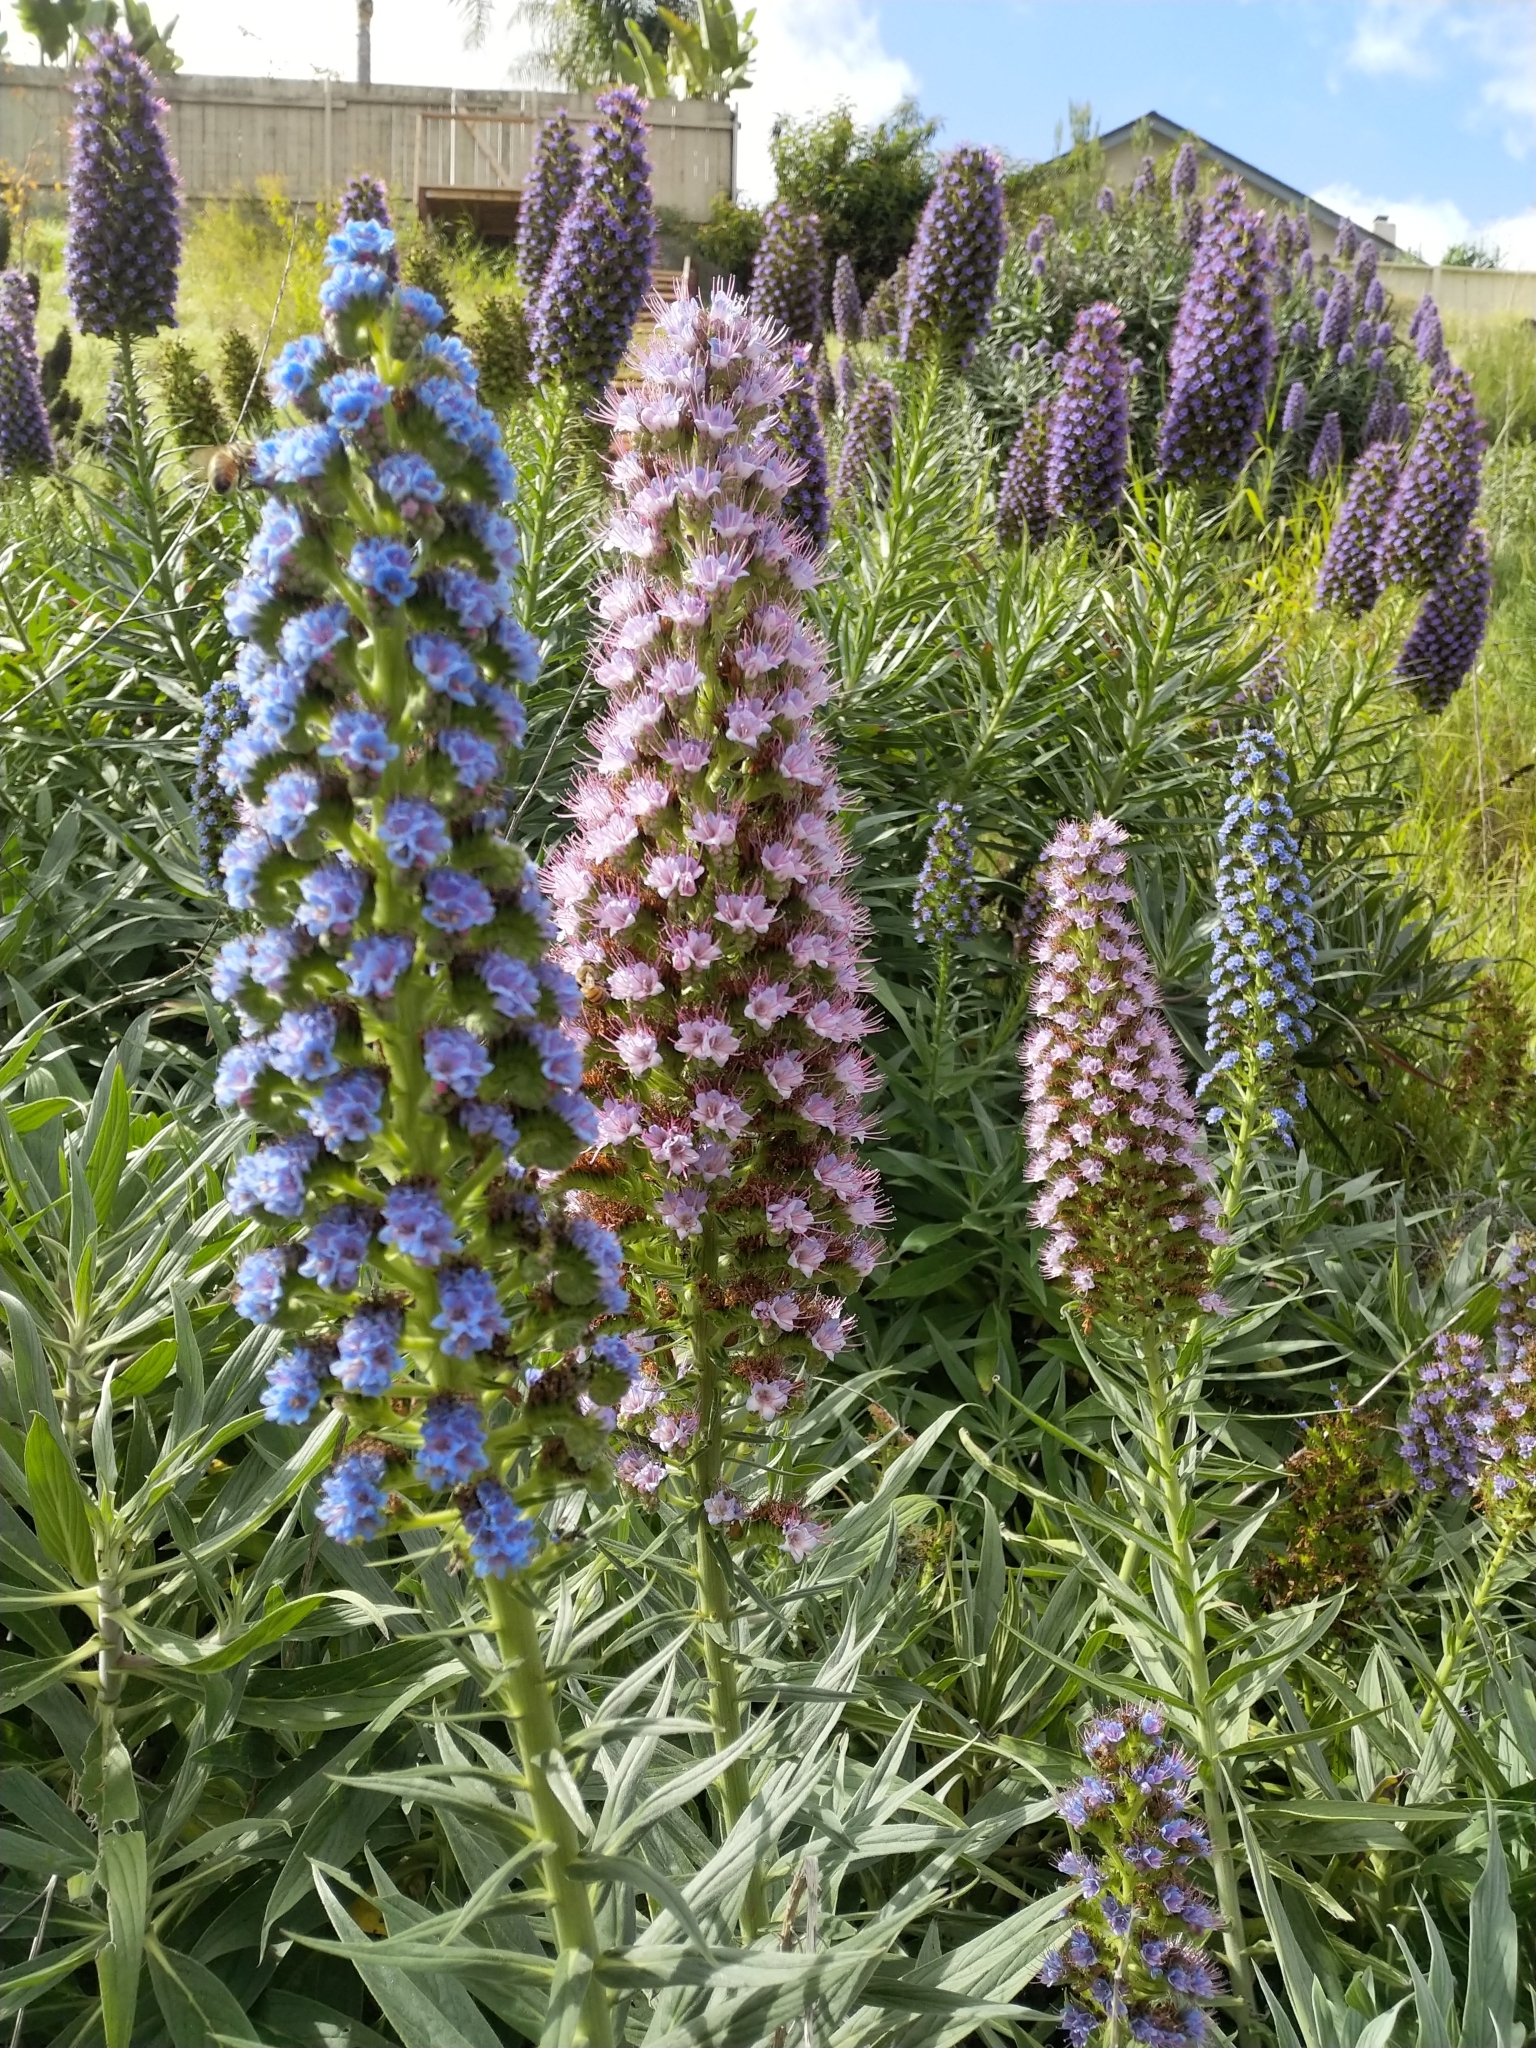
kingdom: Plantae
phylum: Tracheophyta
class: Magnoliopsida
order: Boraginales
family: Boraginaceae
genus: Echium
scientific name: Echium candicans
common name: Pride of madeira
